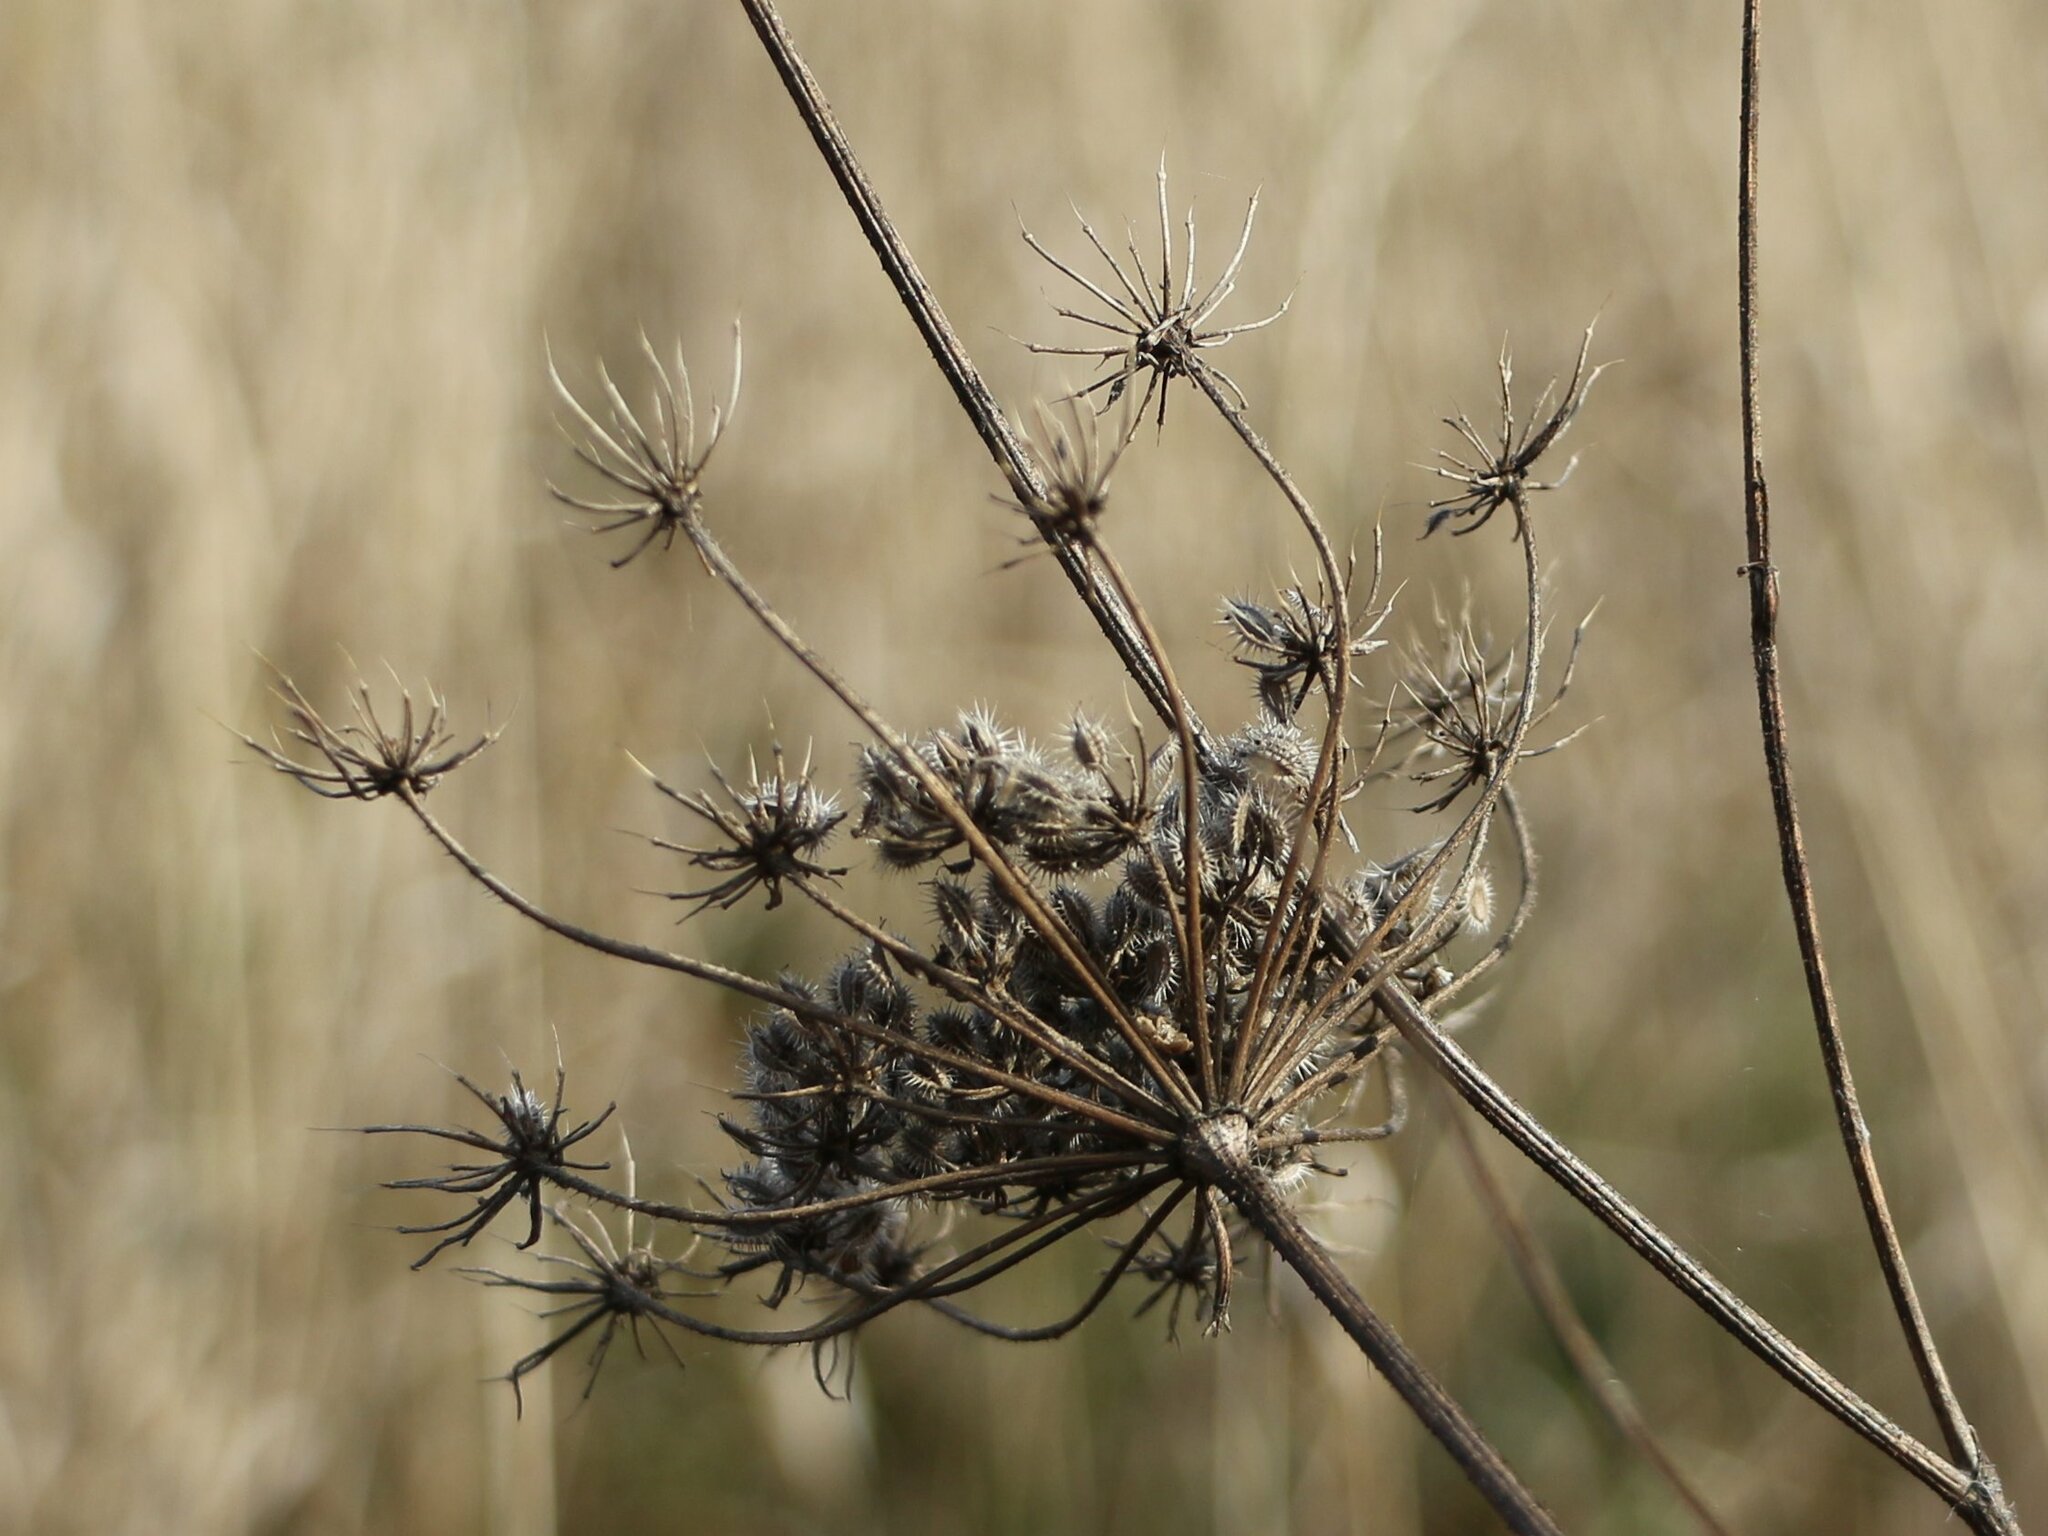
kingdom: Plantae
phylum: Tracheophyta
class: Magnoliopsida
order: Apiales
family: Apiaceae
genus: Daucus
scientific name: Daucus carota
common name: Wild carrot
